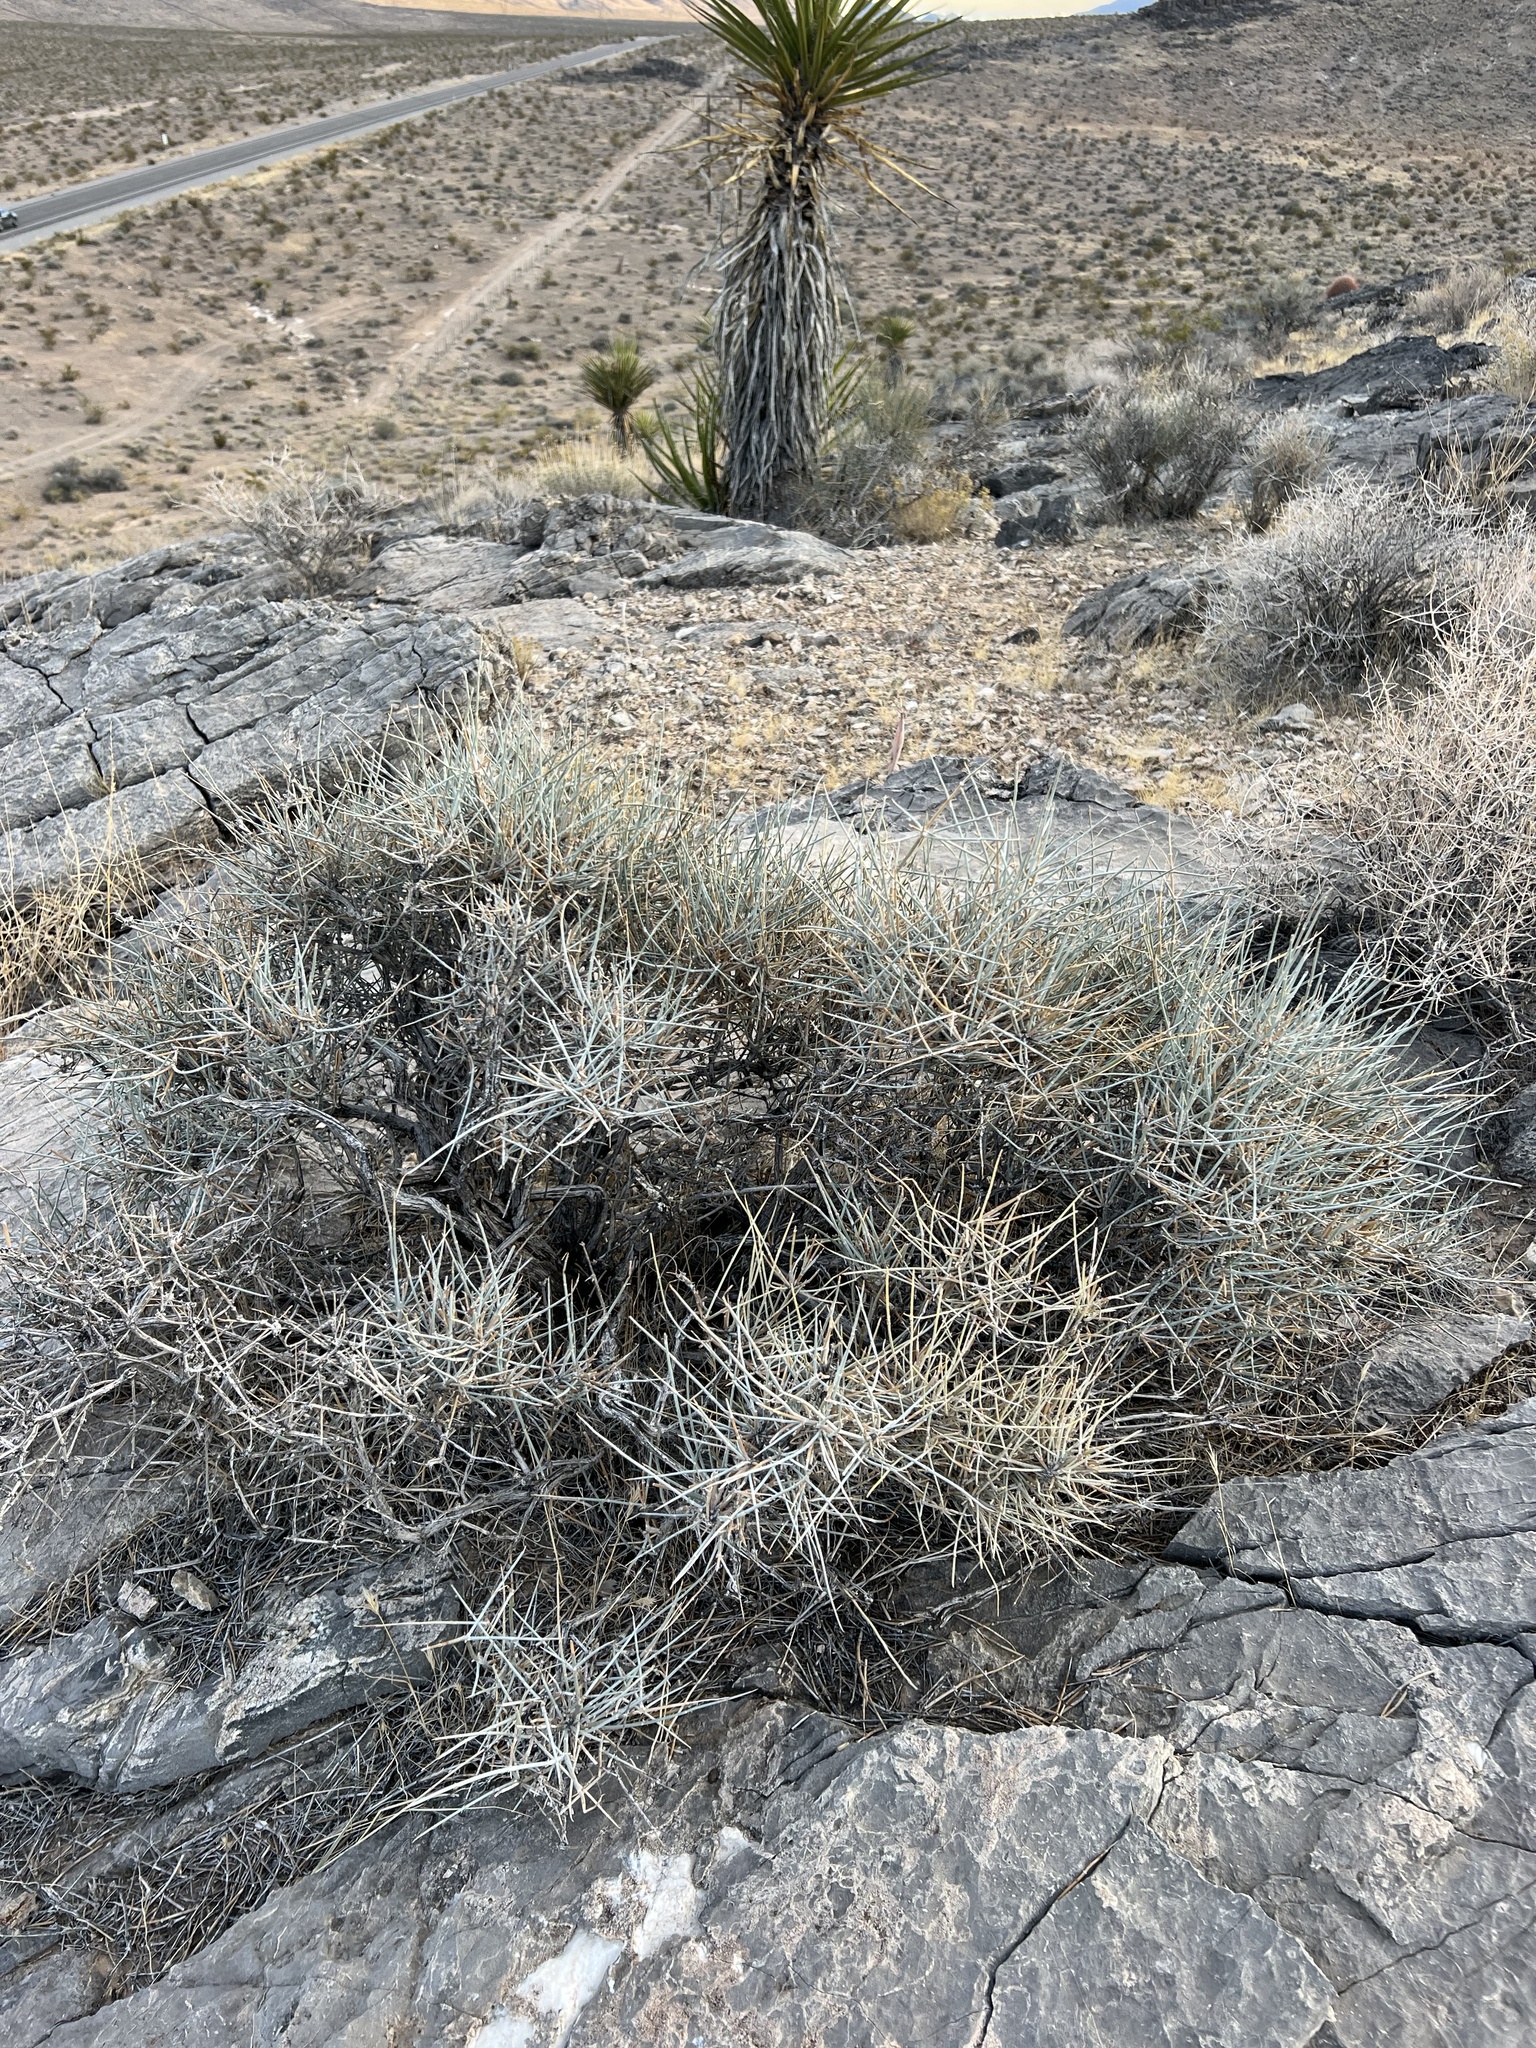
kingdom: Plantae
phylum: Tracheophyta
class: Gnetopsida
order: Ephedrales
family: Ephedraceae
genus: Ephedra
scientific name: Ephedra nevadensis
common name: Gray ephedra
